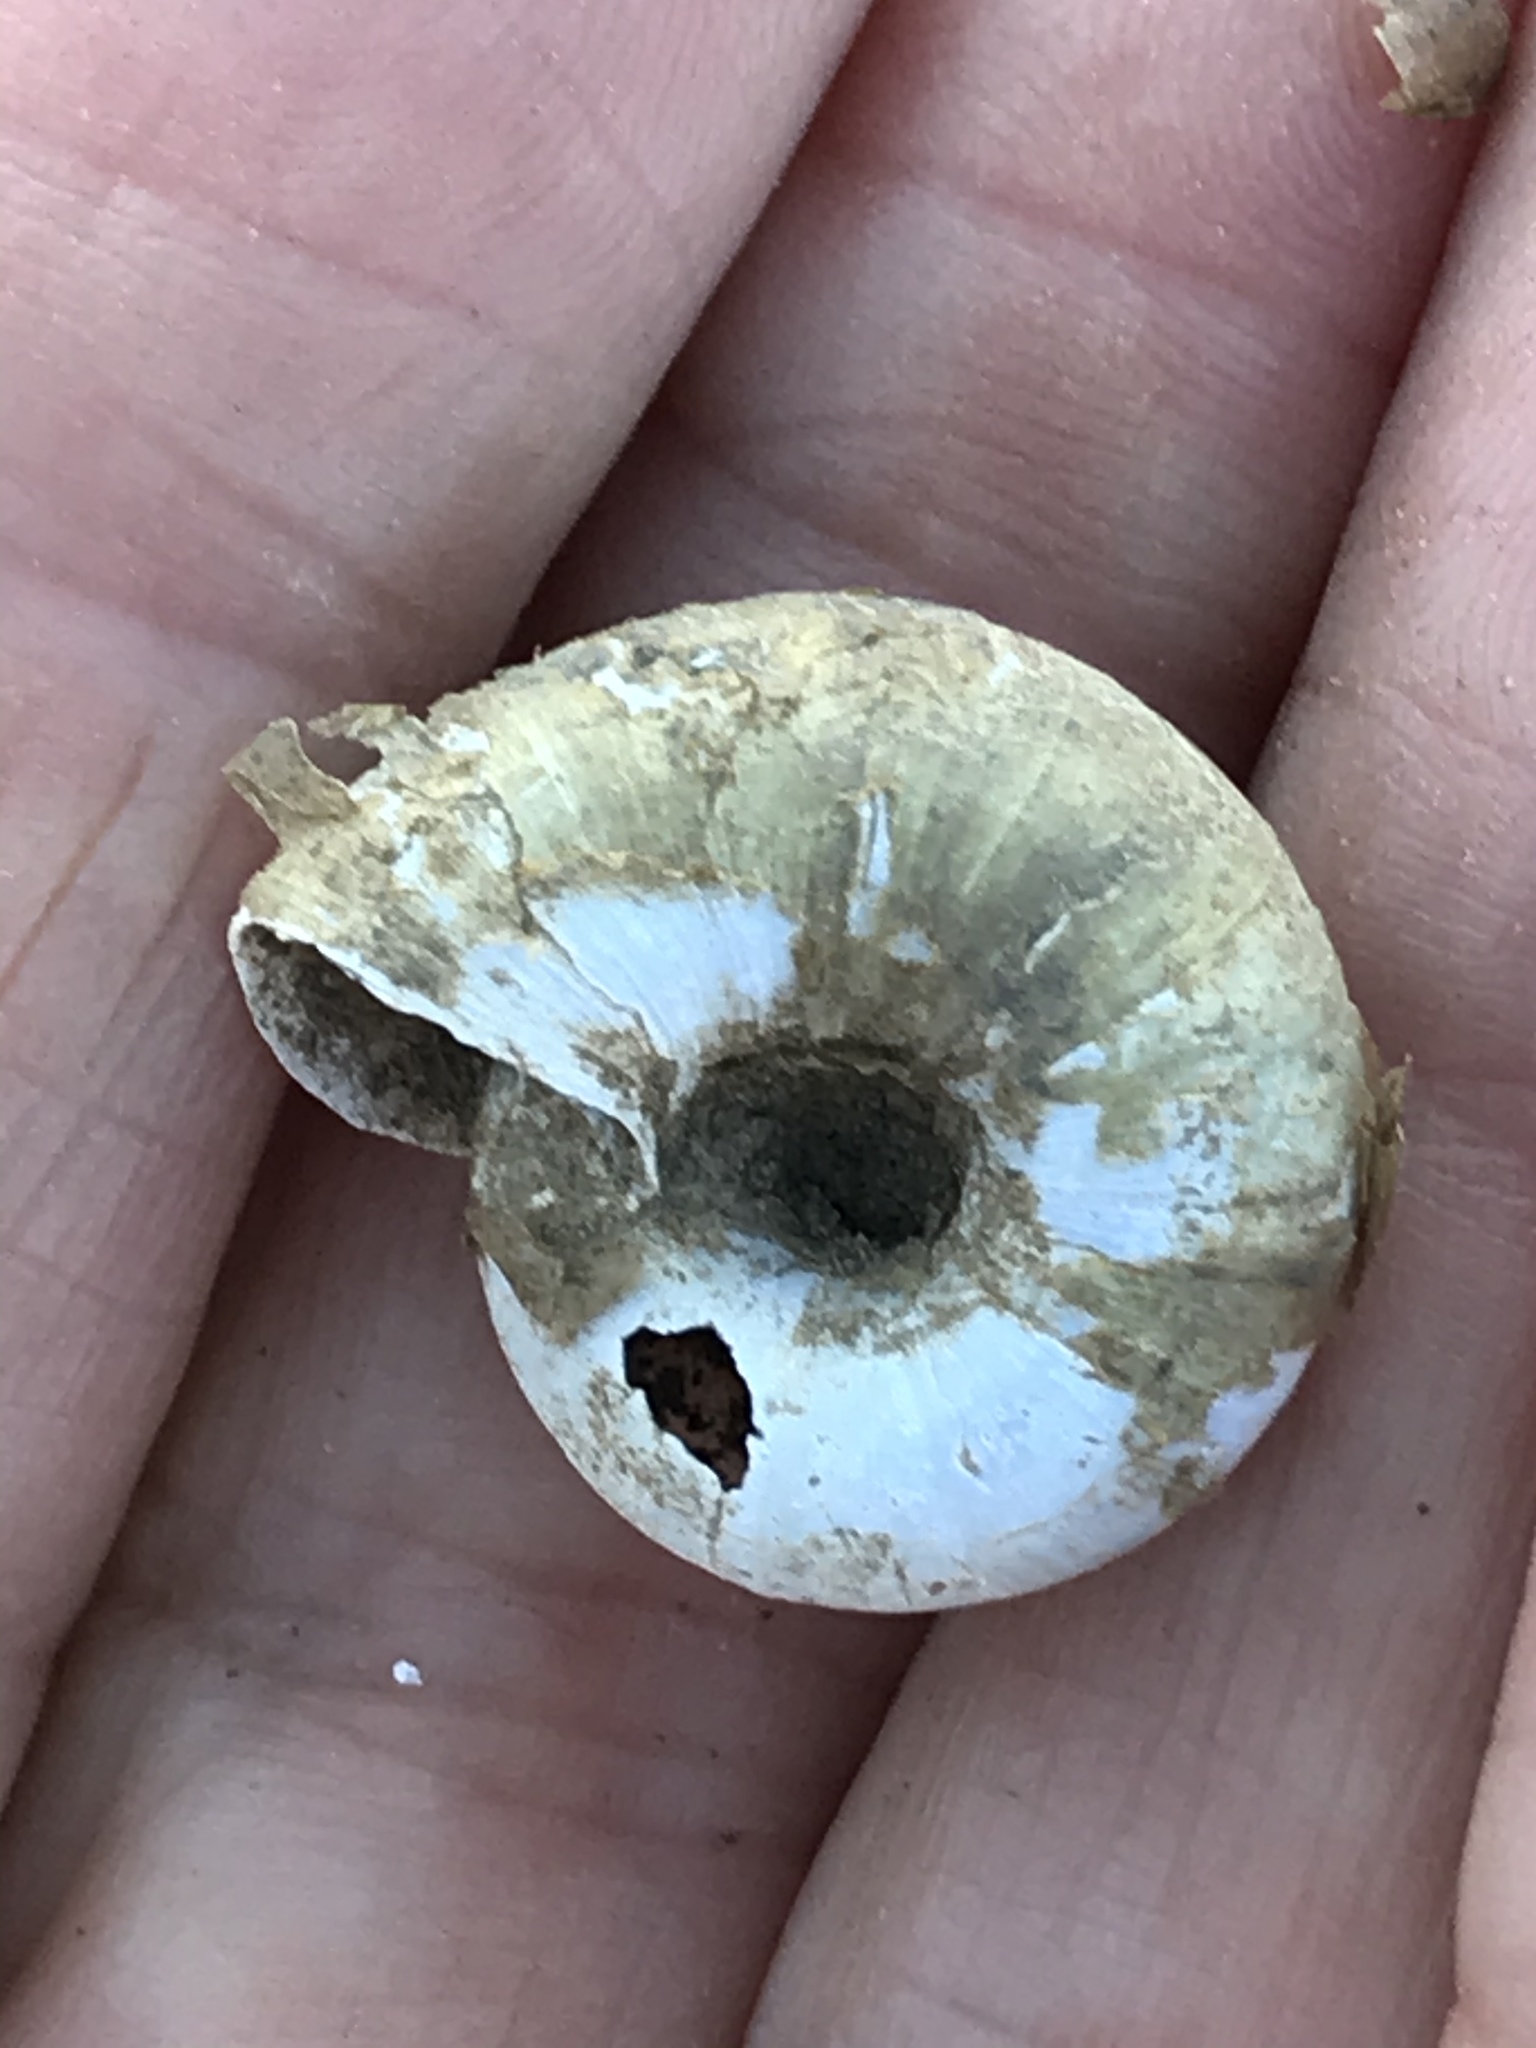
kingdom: Animalia
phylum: Mollusca
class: Gastropoda
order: Stylommatophora
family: Haplotrematidae
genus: Haplotrema
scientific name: Haplotrema minimum
